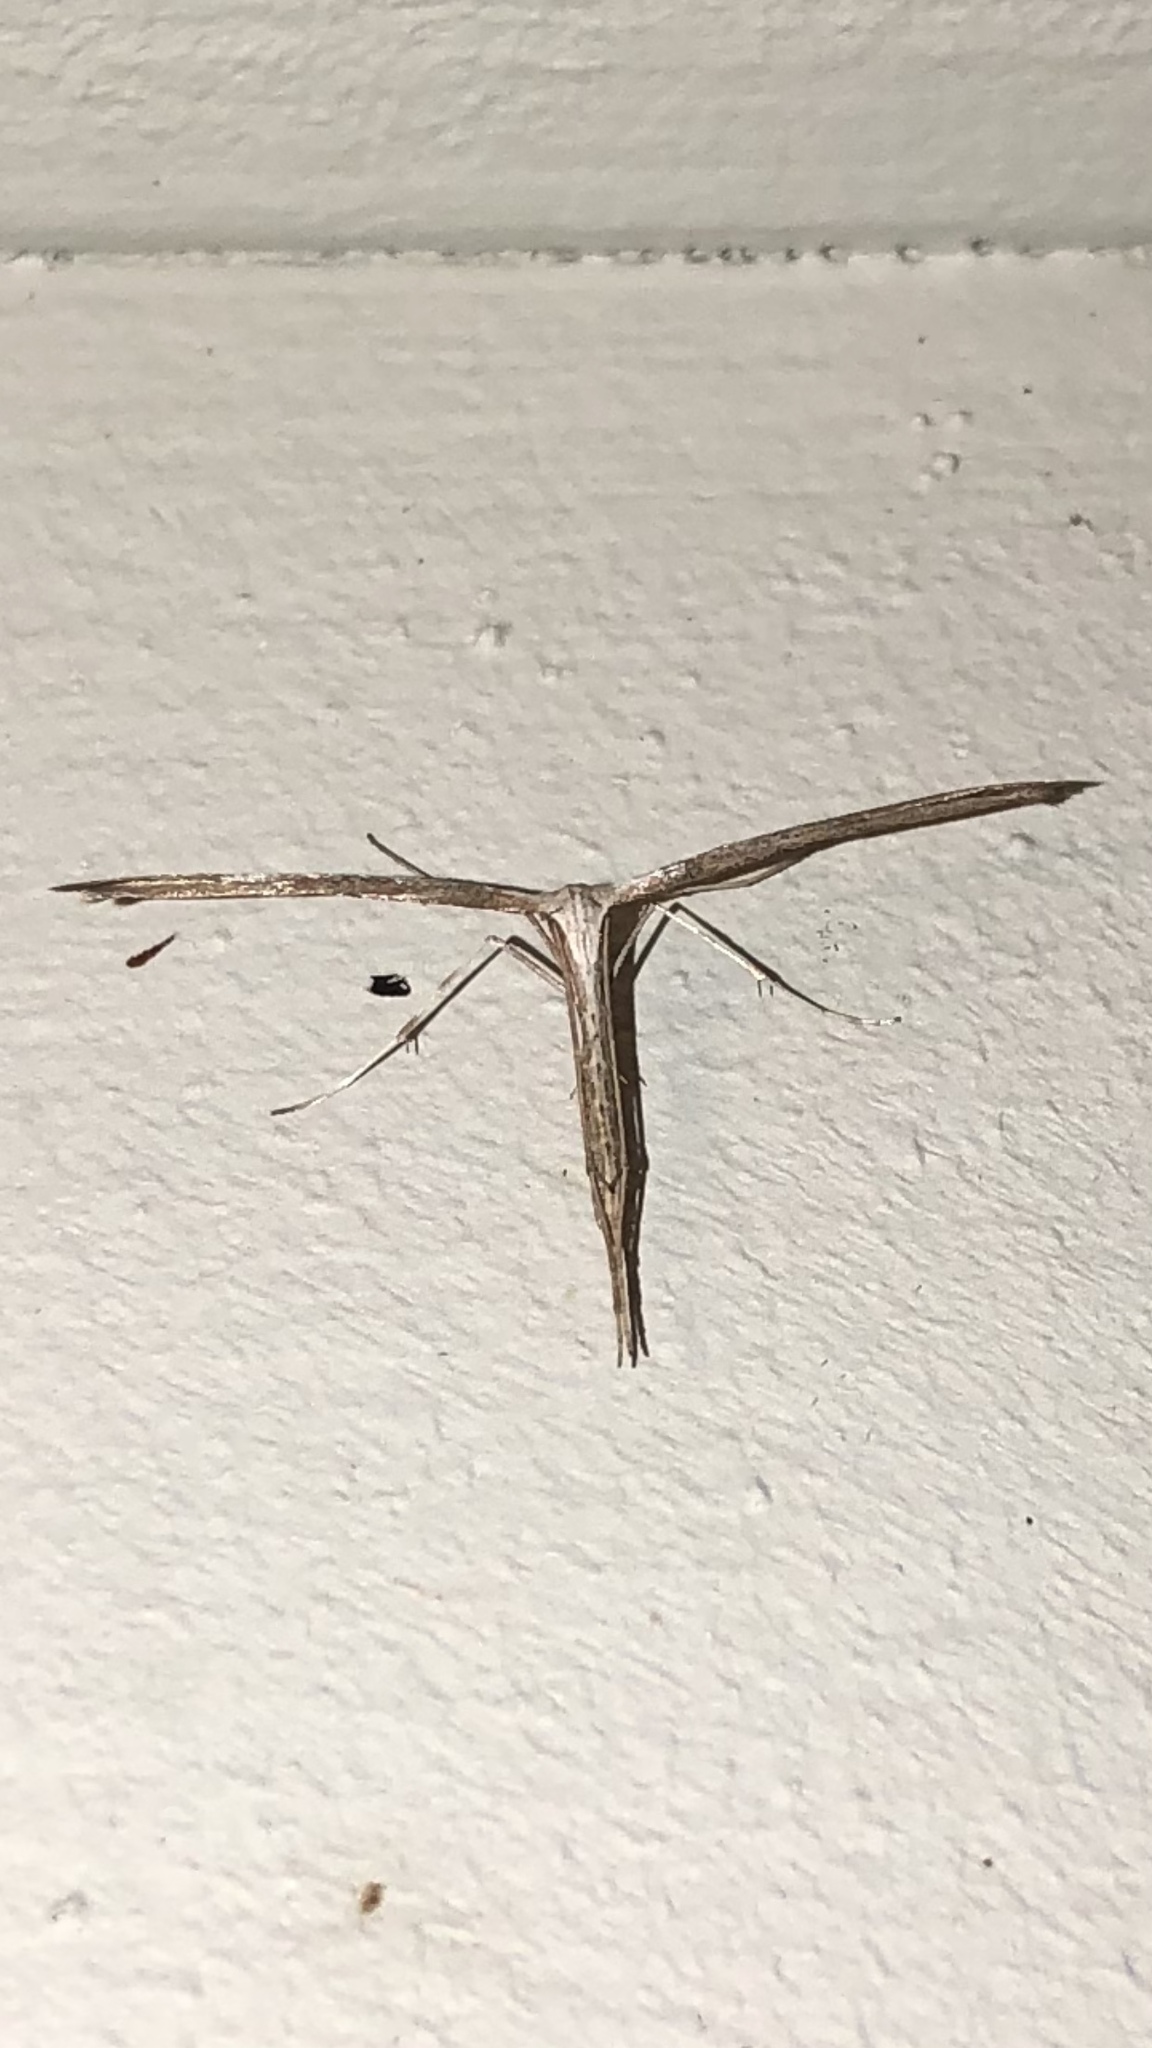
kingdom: Animalia
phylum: Arthropoda
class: Insecta
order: Lepidoptera
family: Pterophoridae
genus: Emmelina
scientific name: Emmelina monodactyla
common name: Common plume
